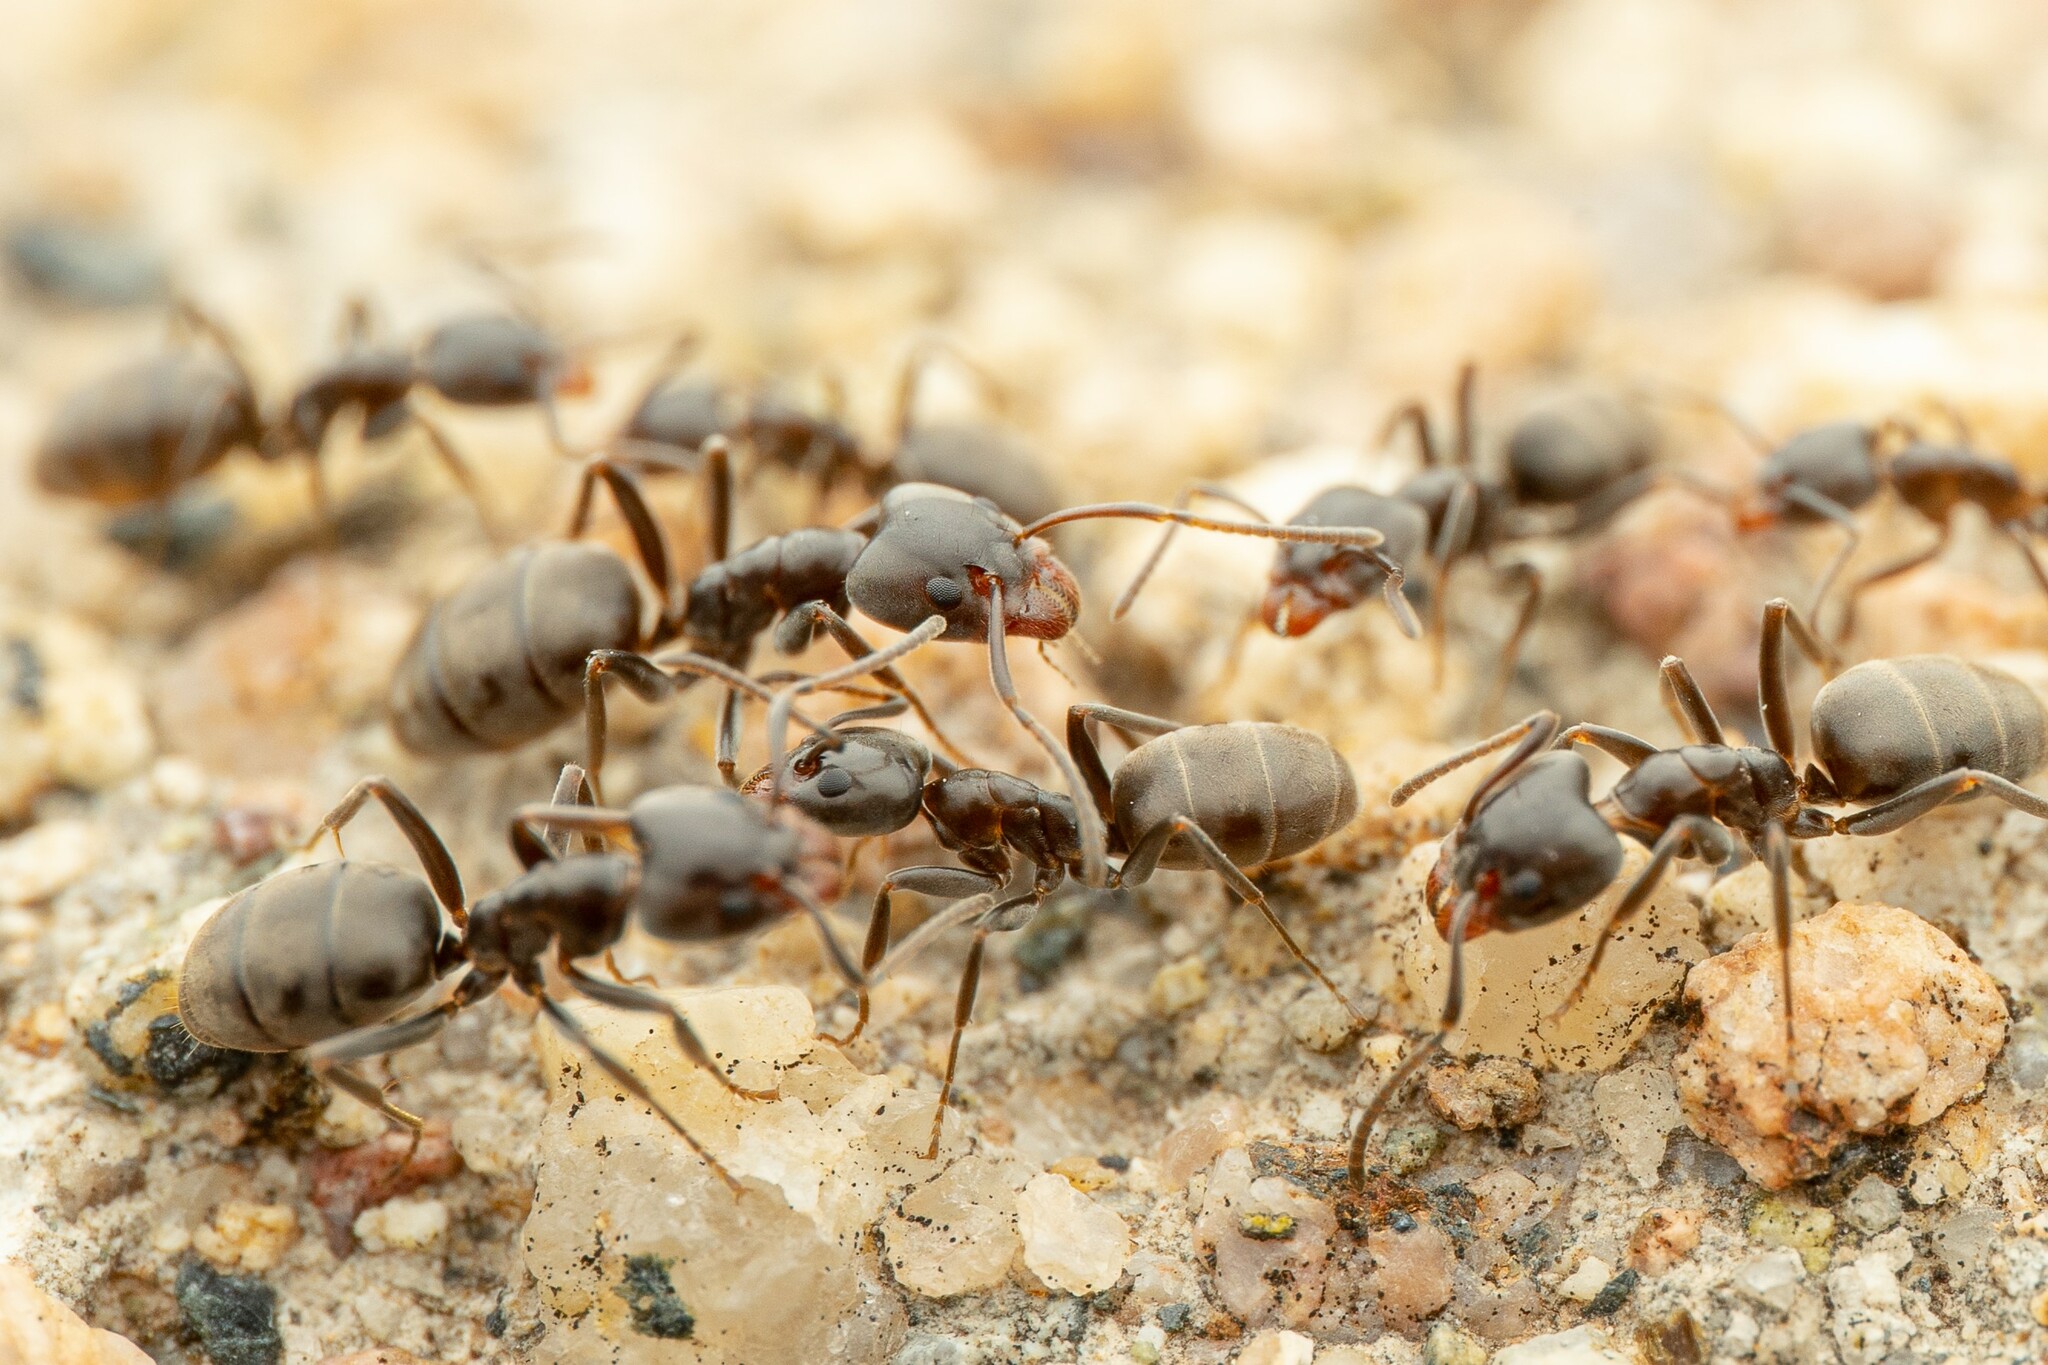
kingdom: Animalia
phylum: Arthropoda
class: Insecta
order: Hymenoptera
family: Formicidae
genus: Liometopum
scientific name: Liometopum luctuosum
